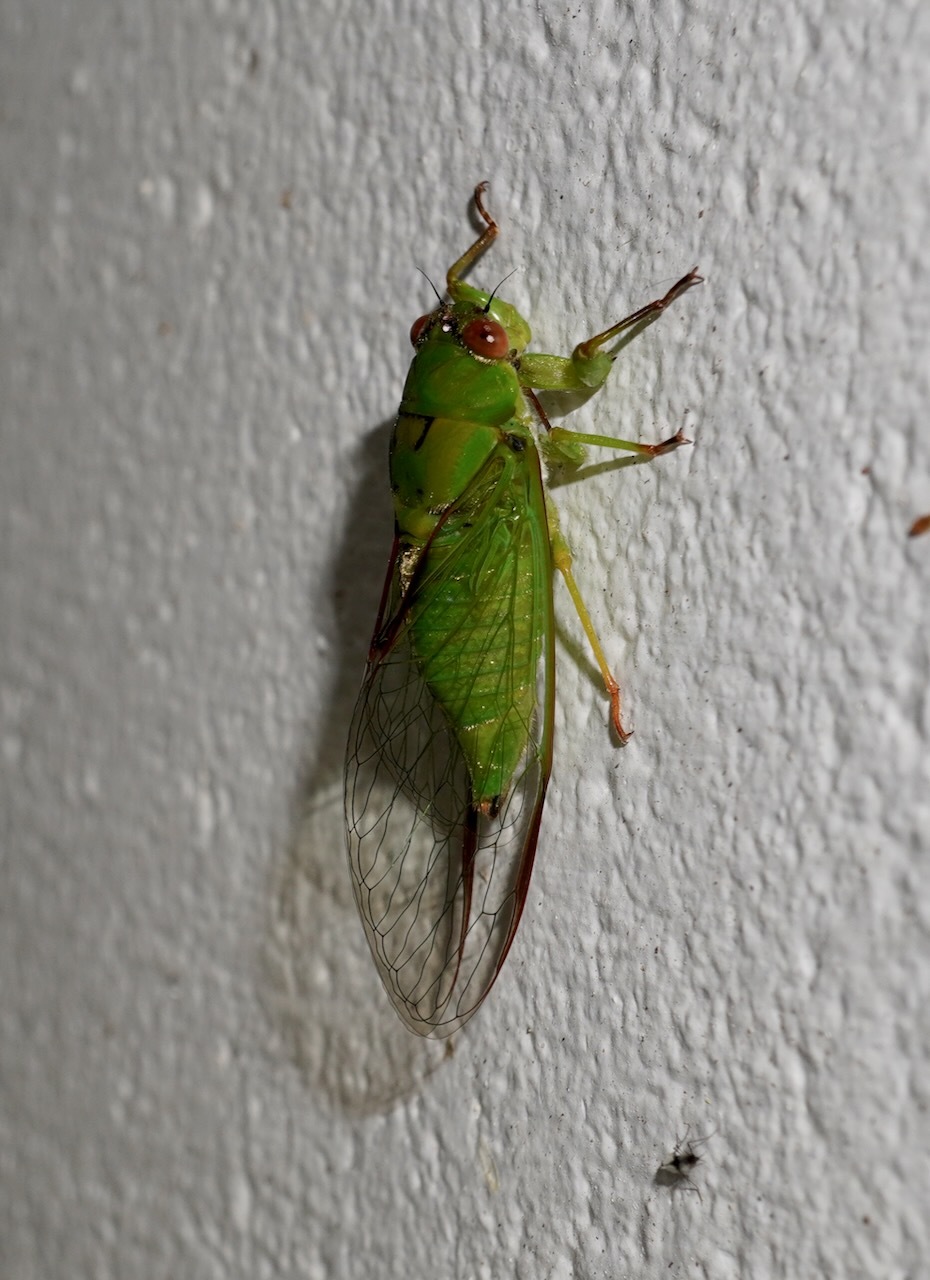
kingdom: Animalia
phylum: Arthropoda
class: Insecta
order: Hemiptera
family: Cicadidae
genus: Kikihia
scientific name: Kikihia ochrina
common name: April green cicada
